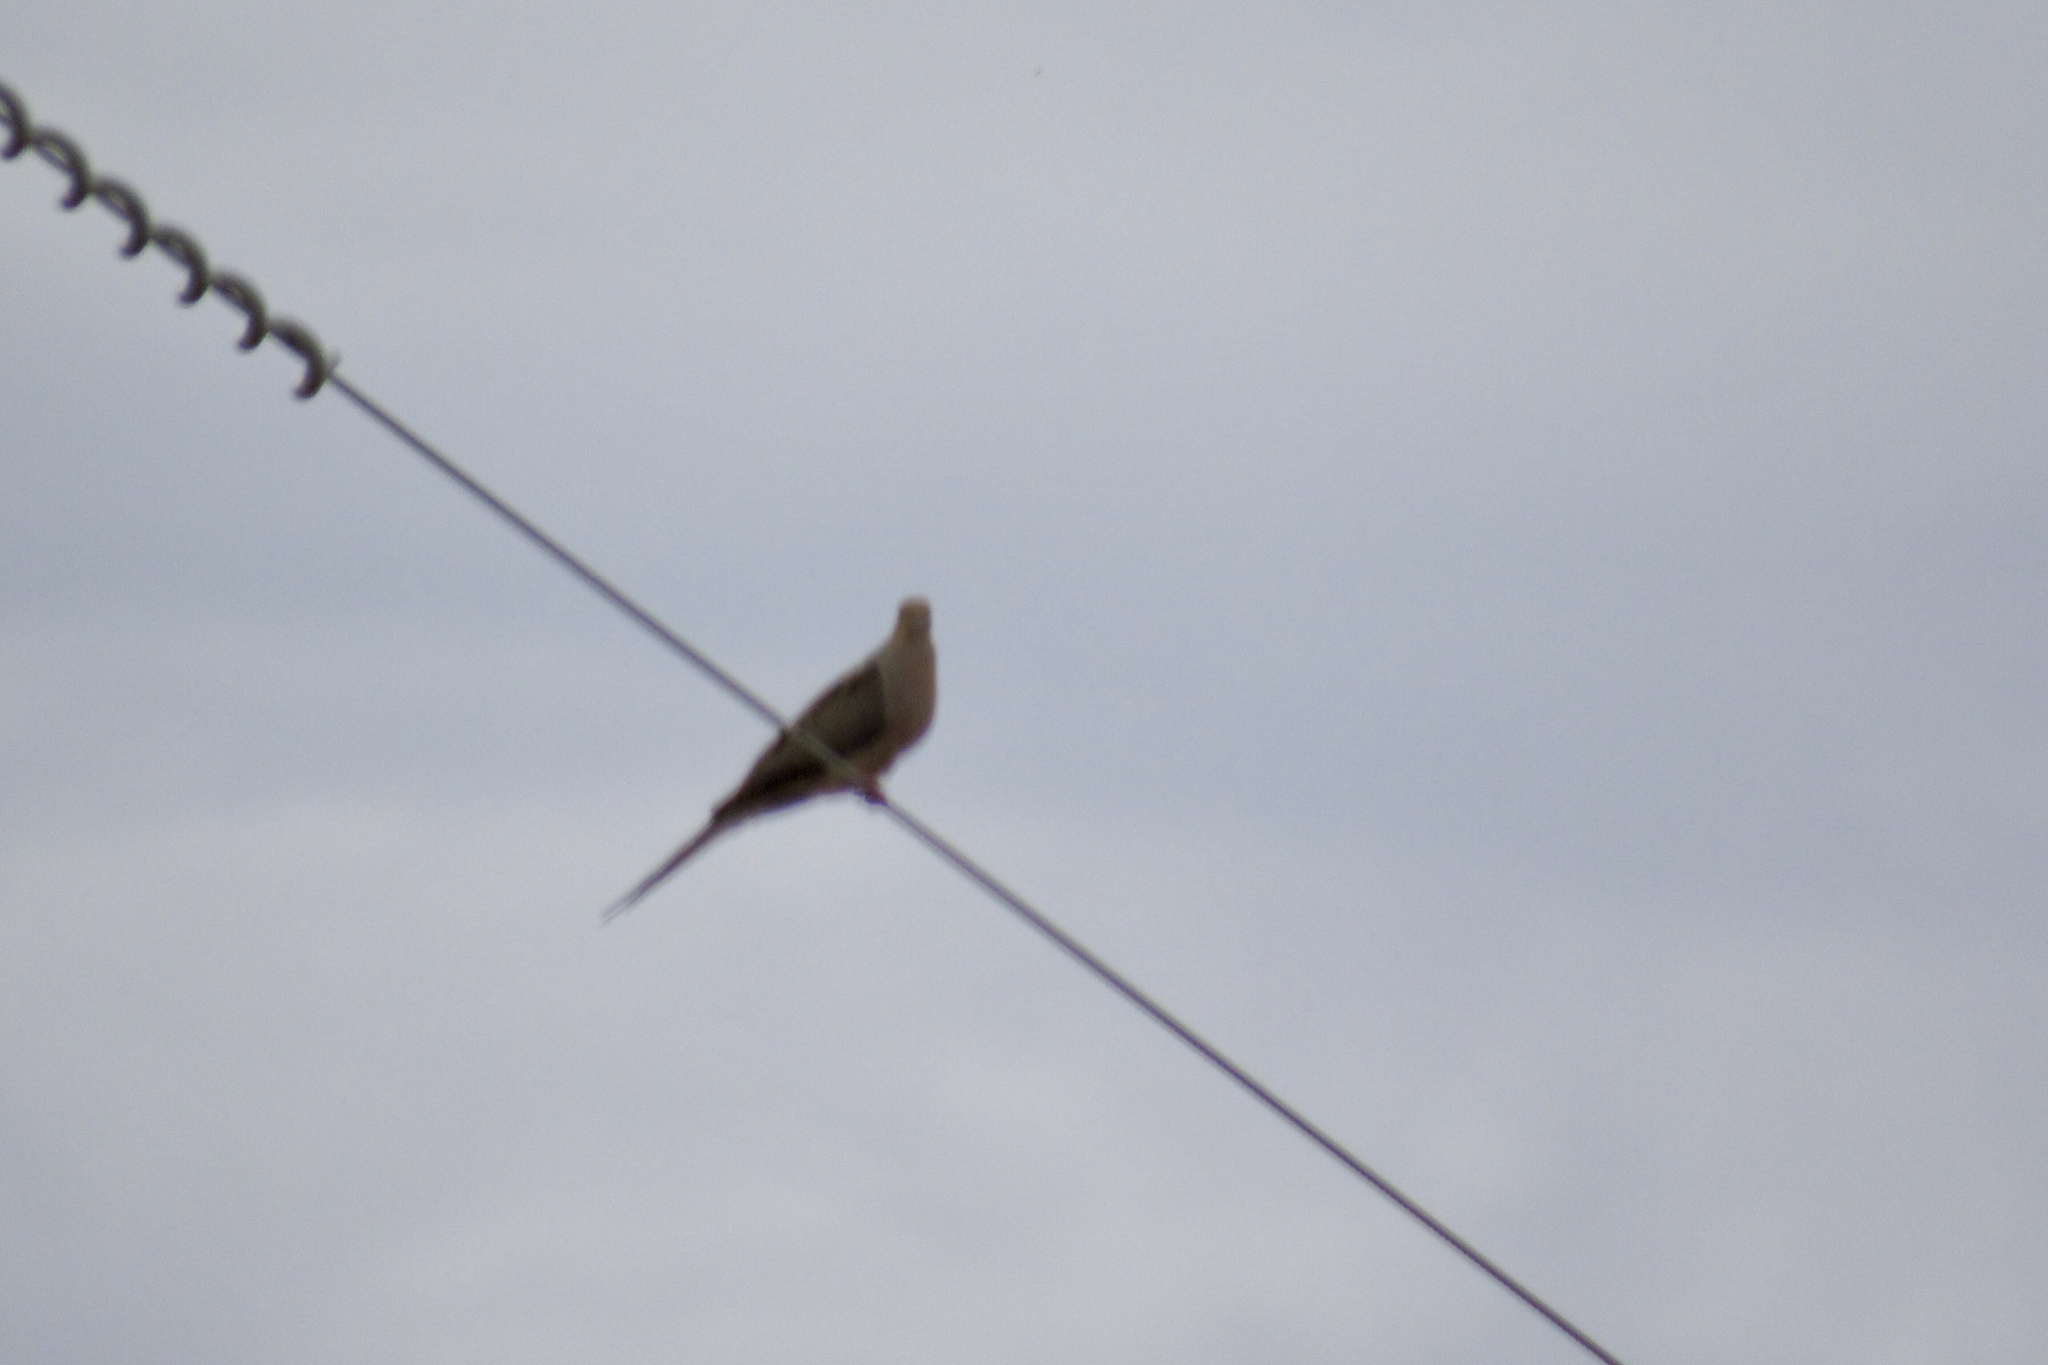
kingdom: Animalia
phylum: Chordata
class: Aves
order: Columbiformes
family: Columbidae
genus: Zenaida
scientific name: Zenaida macroura
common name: Mourning dove
